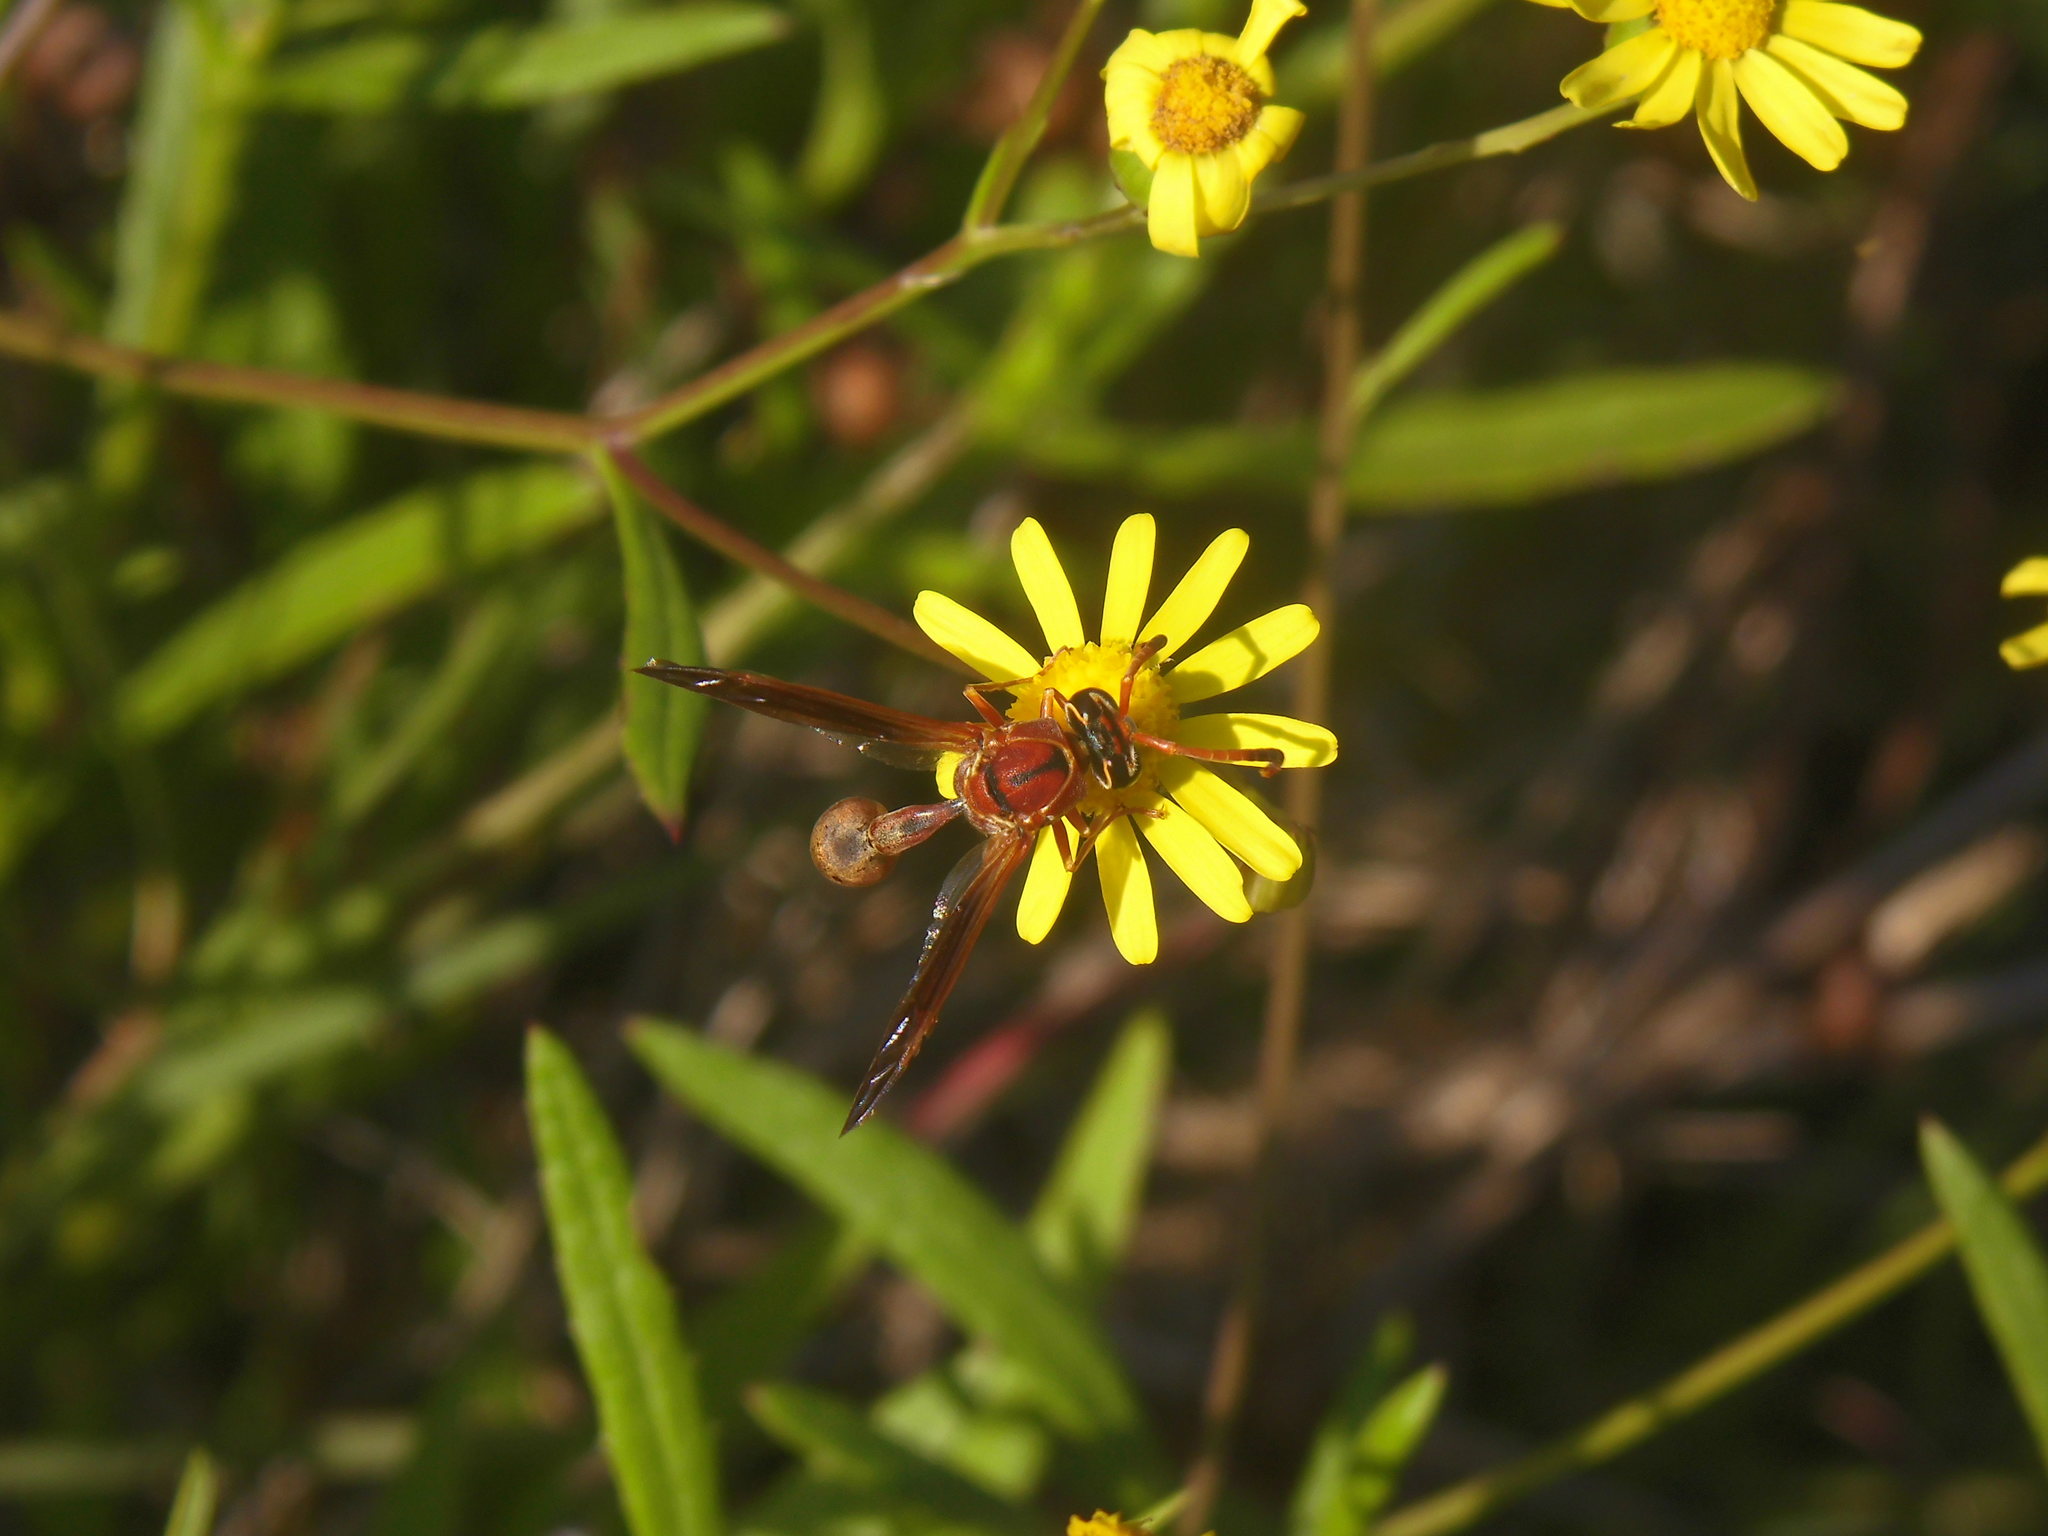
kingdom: Animalia
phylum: Arthropoda
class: Insecta
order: Hymenoptera
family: Eumenidae
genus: Zeta
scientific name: Zeta argillaceum
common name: Potter wasp
